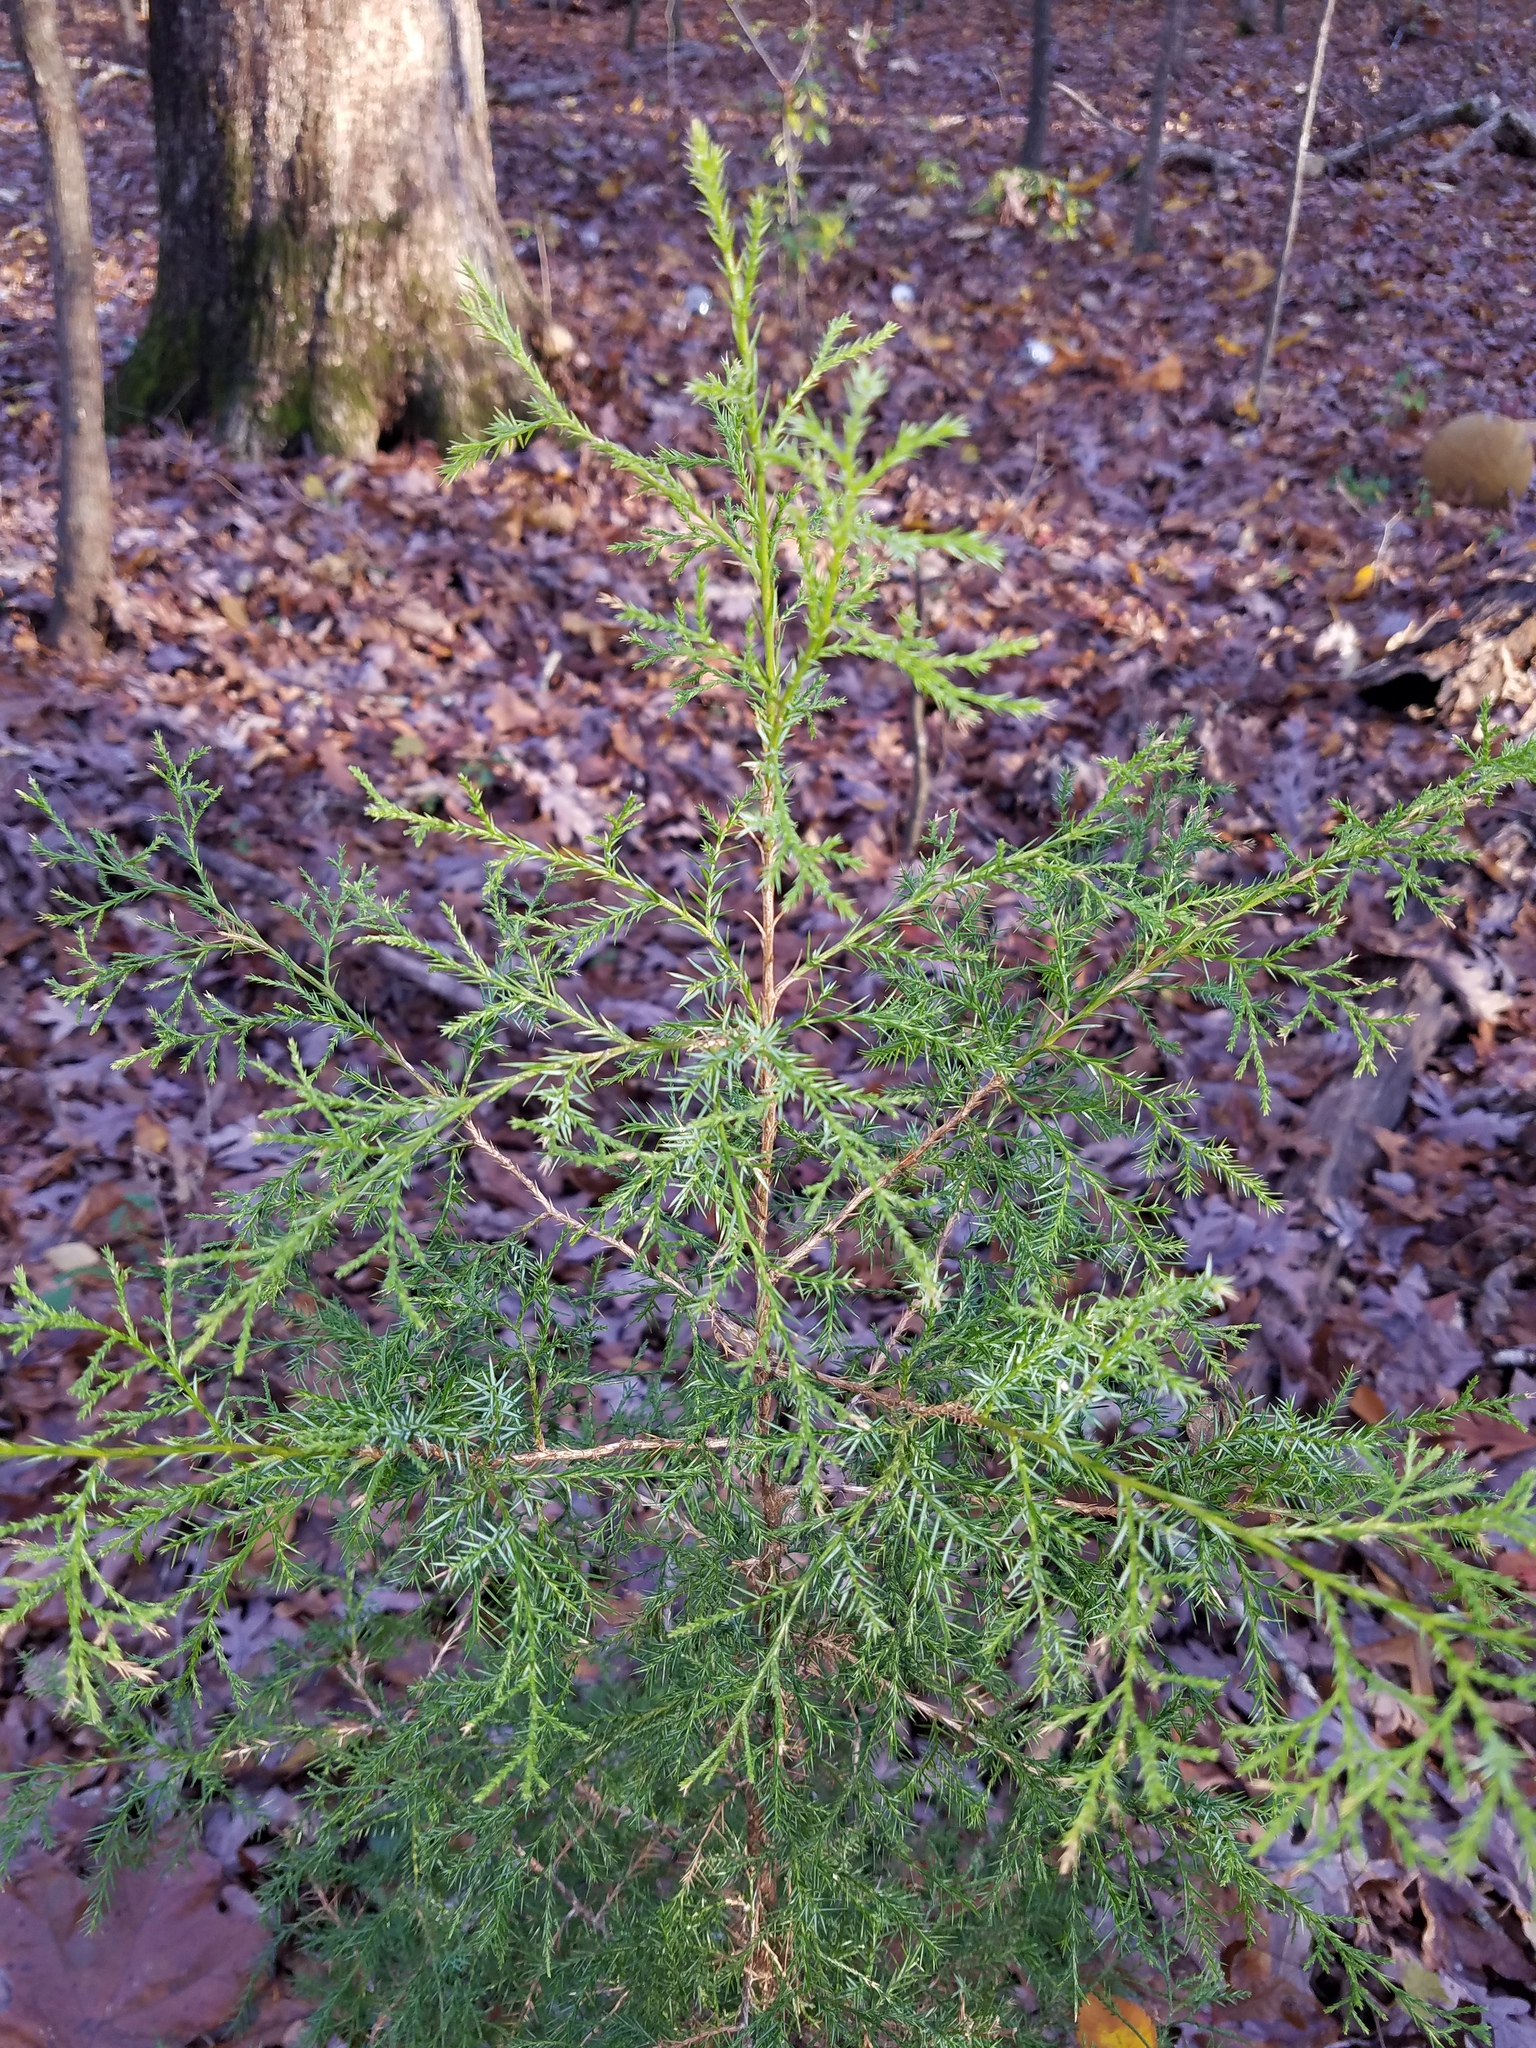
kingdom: Plantae
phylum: Tracheophyta
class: Pinopsida
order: Pinales
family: Cupressaceae
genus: Juniperus
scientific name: Juniperus virginiana
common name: Red juniper
